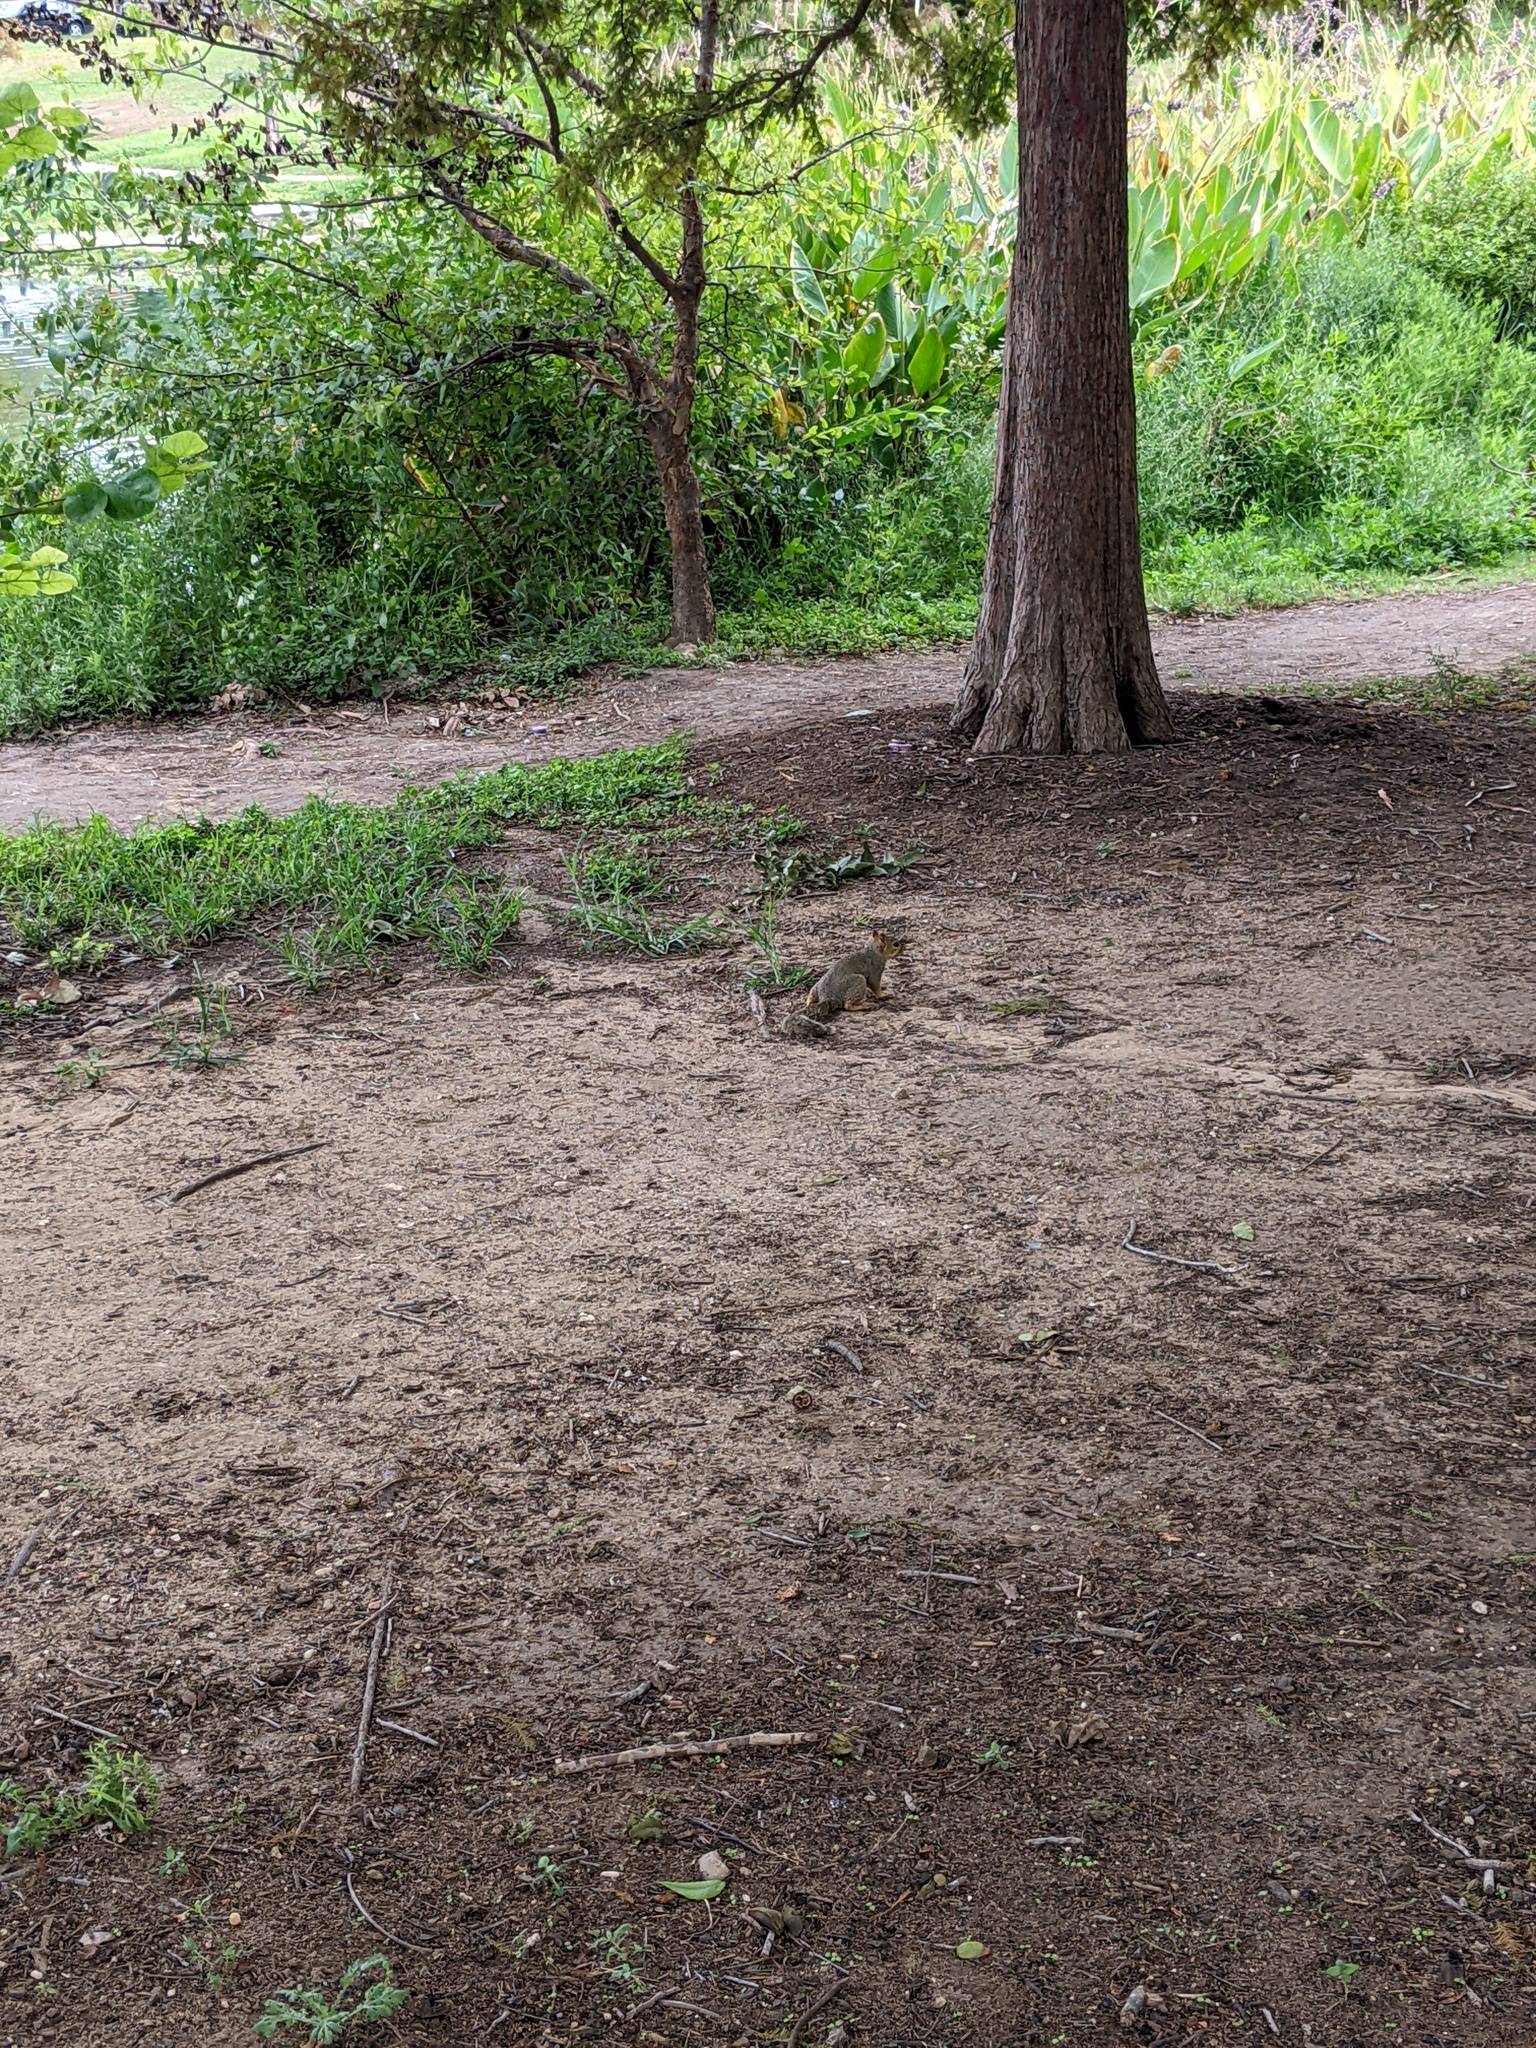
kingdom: Animalia
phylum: Chordata
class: Mammalia
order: Rodentia
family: Sciuridae
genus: Sciurus
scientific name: Sciurus niger
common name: Fox squirrel
